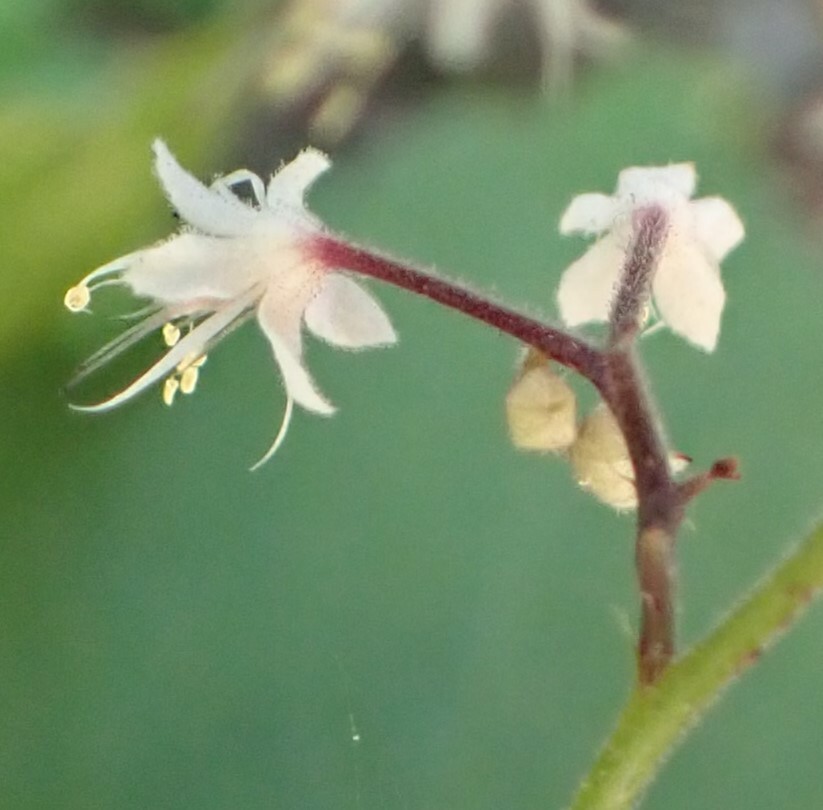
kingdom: Plantae
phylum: Tracheophyta
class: Magnoliopsida
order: Saxifragales
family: Saxifragaceae
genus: Tiarella
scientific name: Tiarella trifoliata
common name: Sugar-scoop
